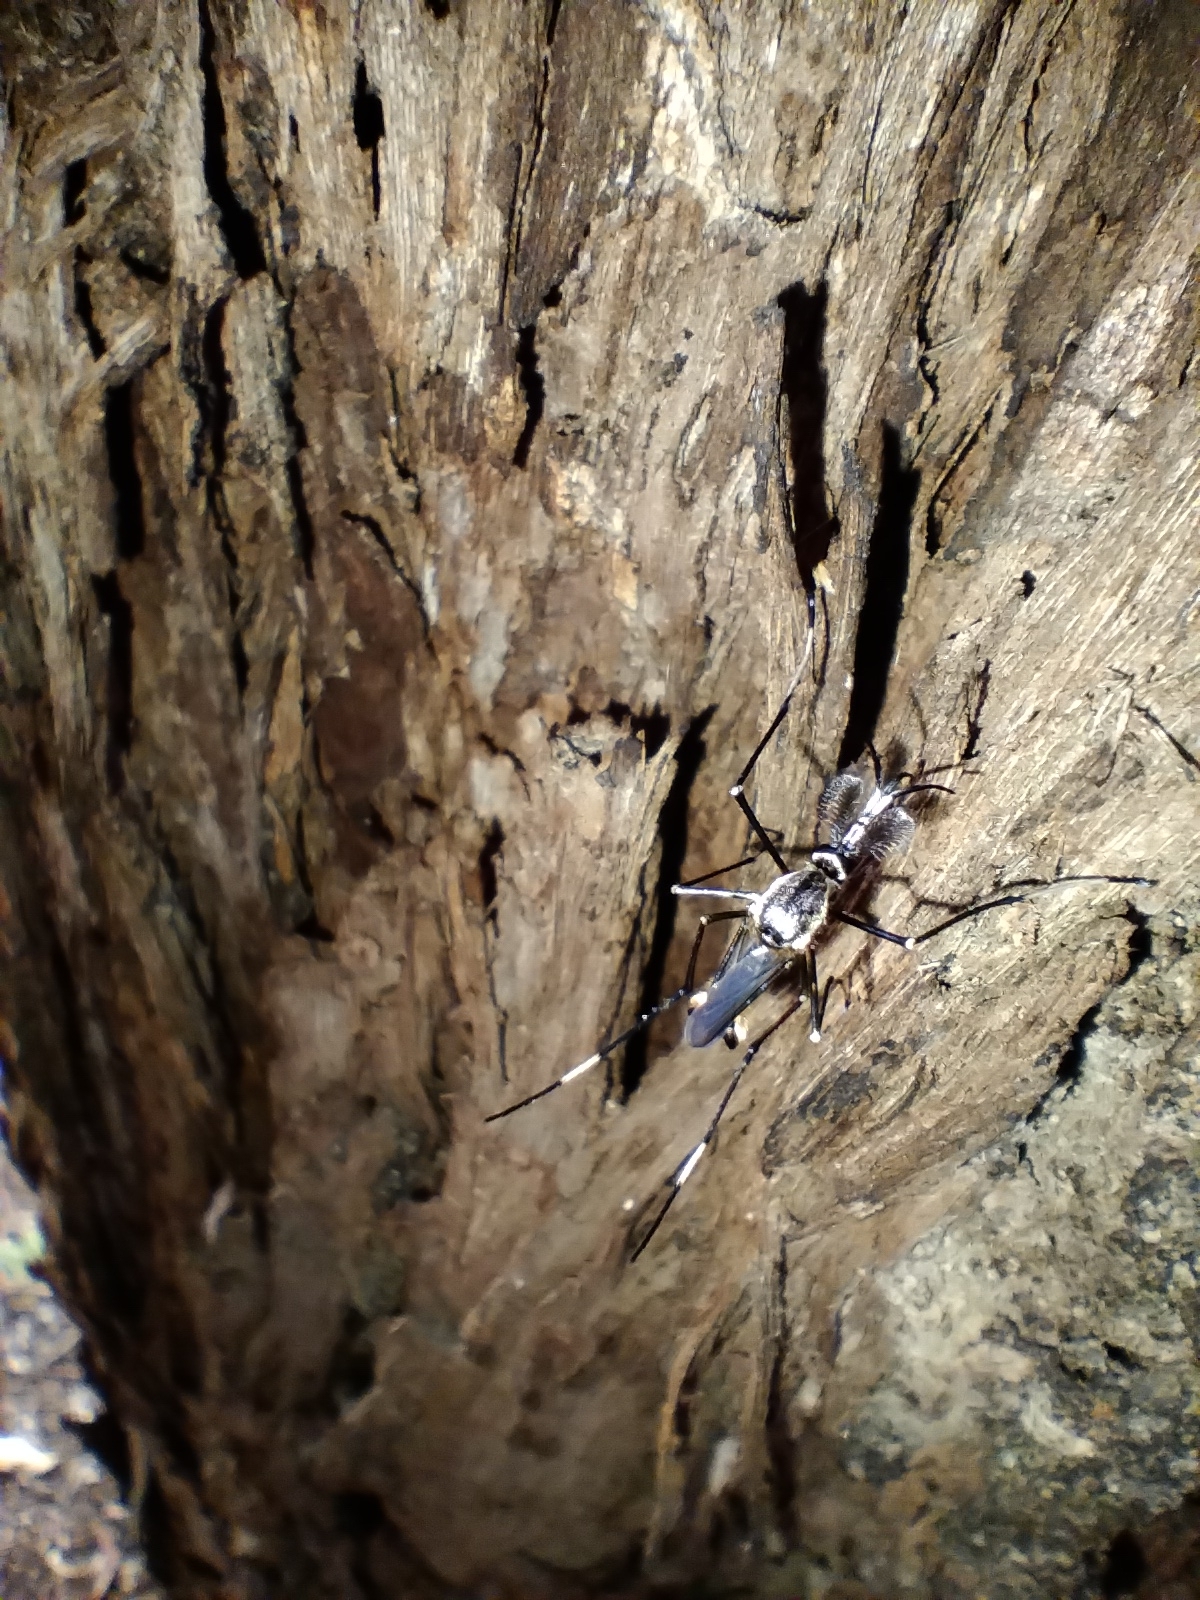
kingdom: Animalia
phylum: Arthropoda
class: Insecta
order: Diptera
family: Culicidae
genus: Toxorhynchites
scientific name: Toxorhynchites speciosus
